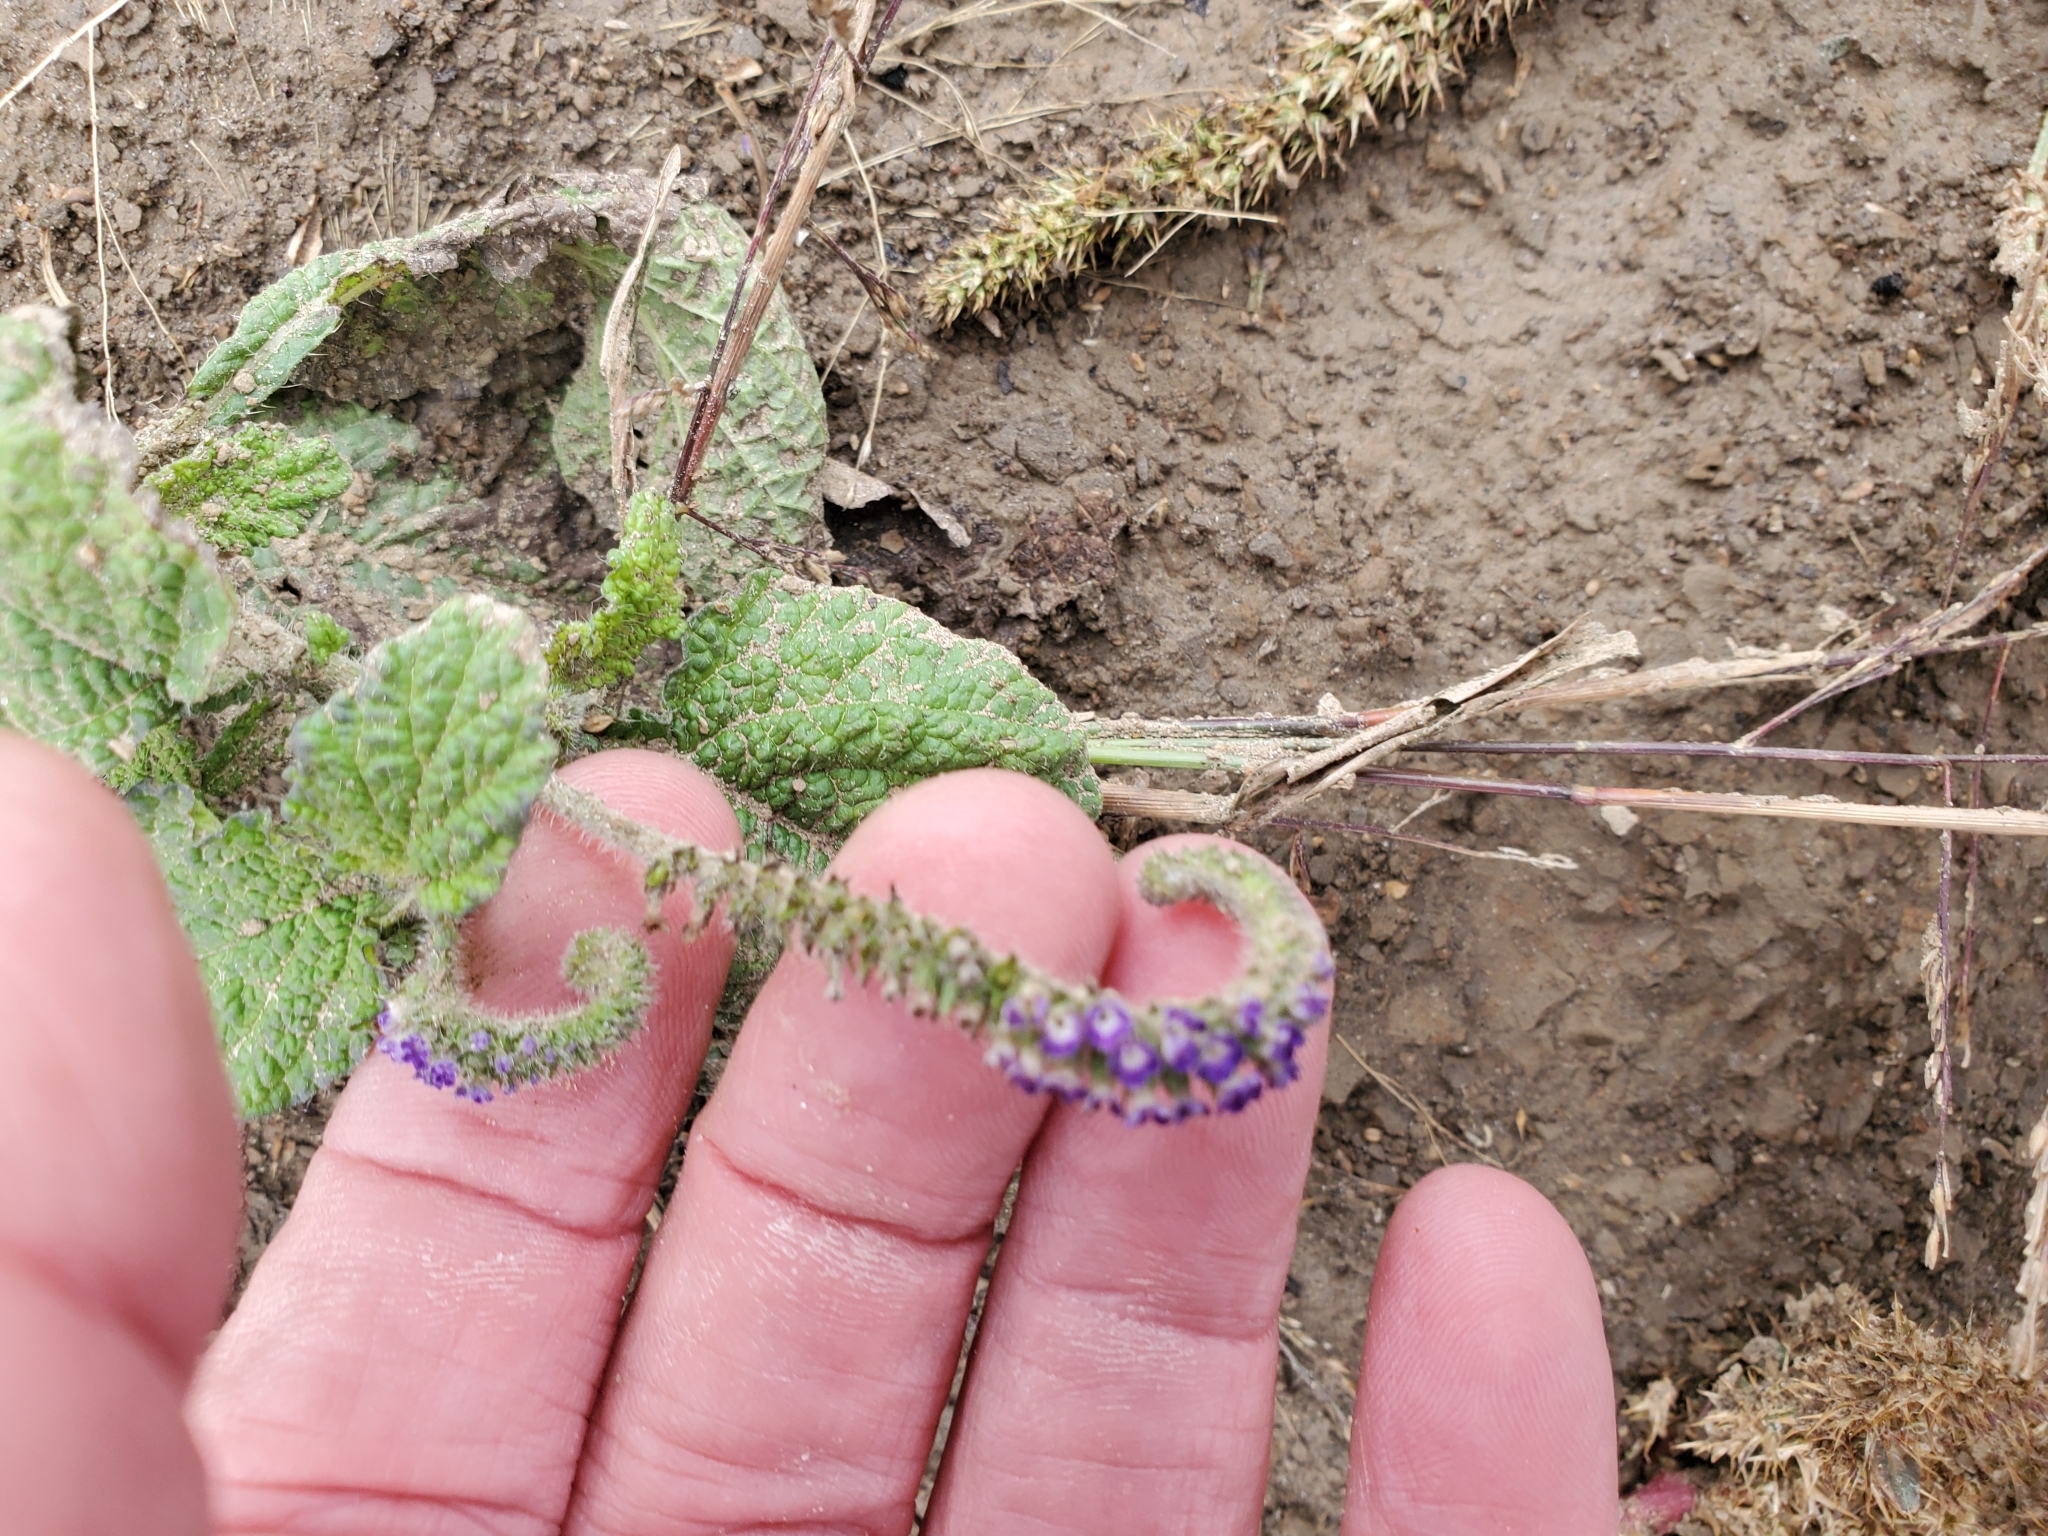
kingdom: Plantae
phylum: Tracheophyta
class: Magnoliopsida
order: Boraginales
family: Heliotropiaceae
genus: Heliotropium
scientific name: Heliotropium indicum
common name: Indian heliotrope
